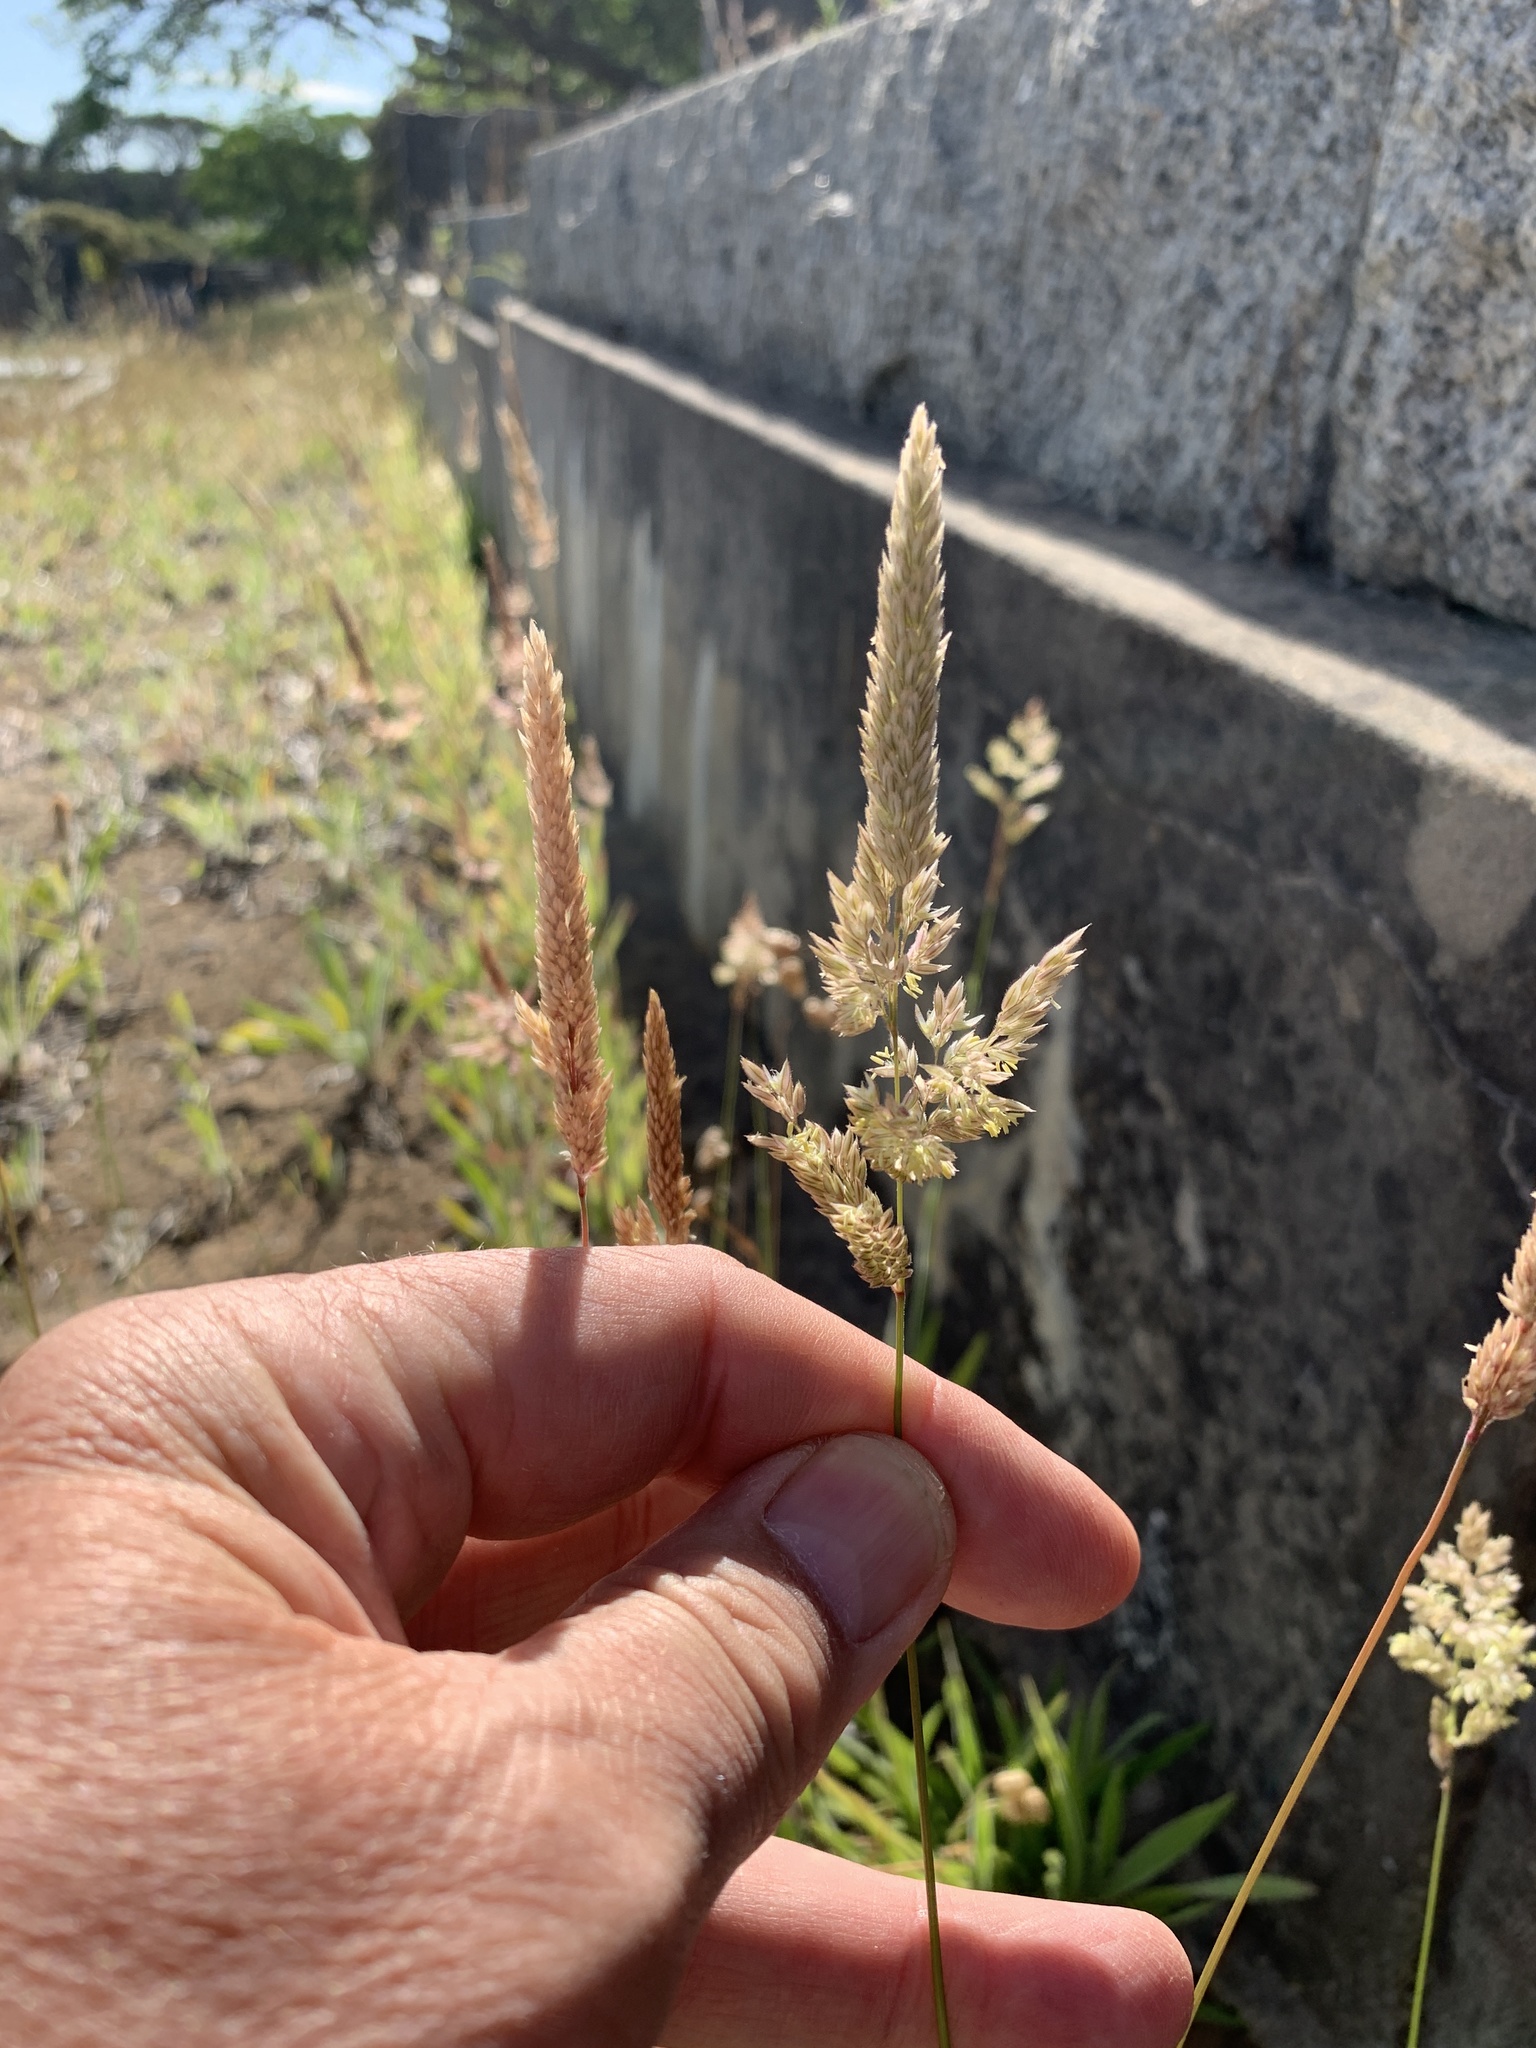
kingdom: Plantae
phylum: Tracheophyta
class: Liliopsida
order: Poales
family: Poaceae
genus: Holcus
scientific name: Holcus lanatus
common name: Yorkshire-fog
